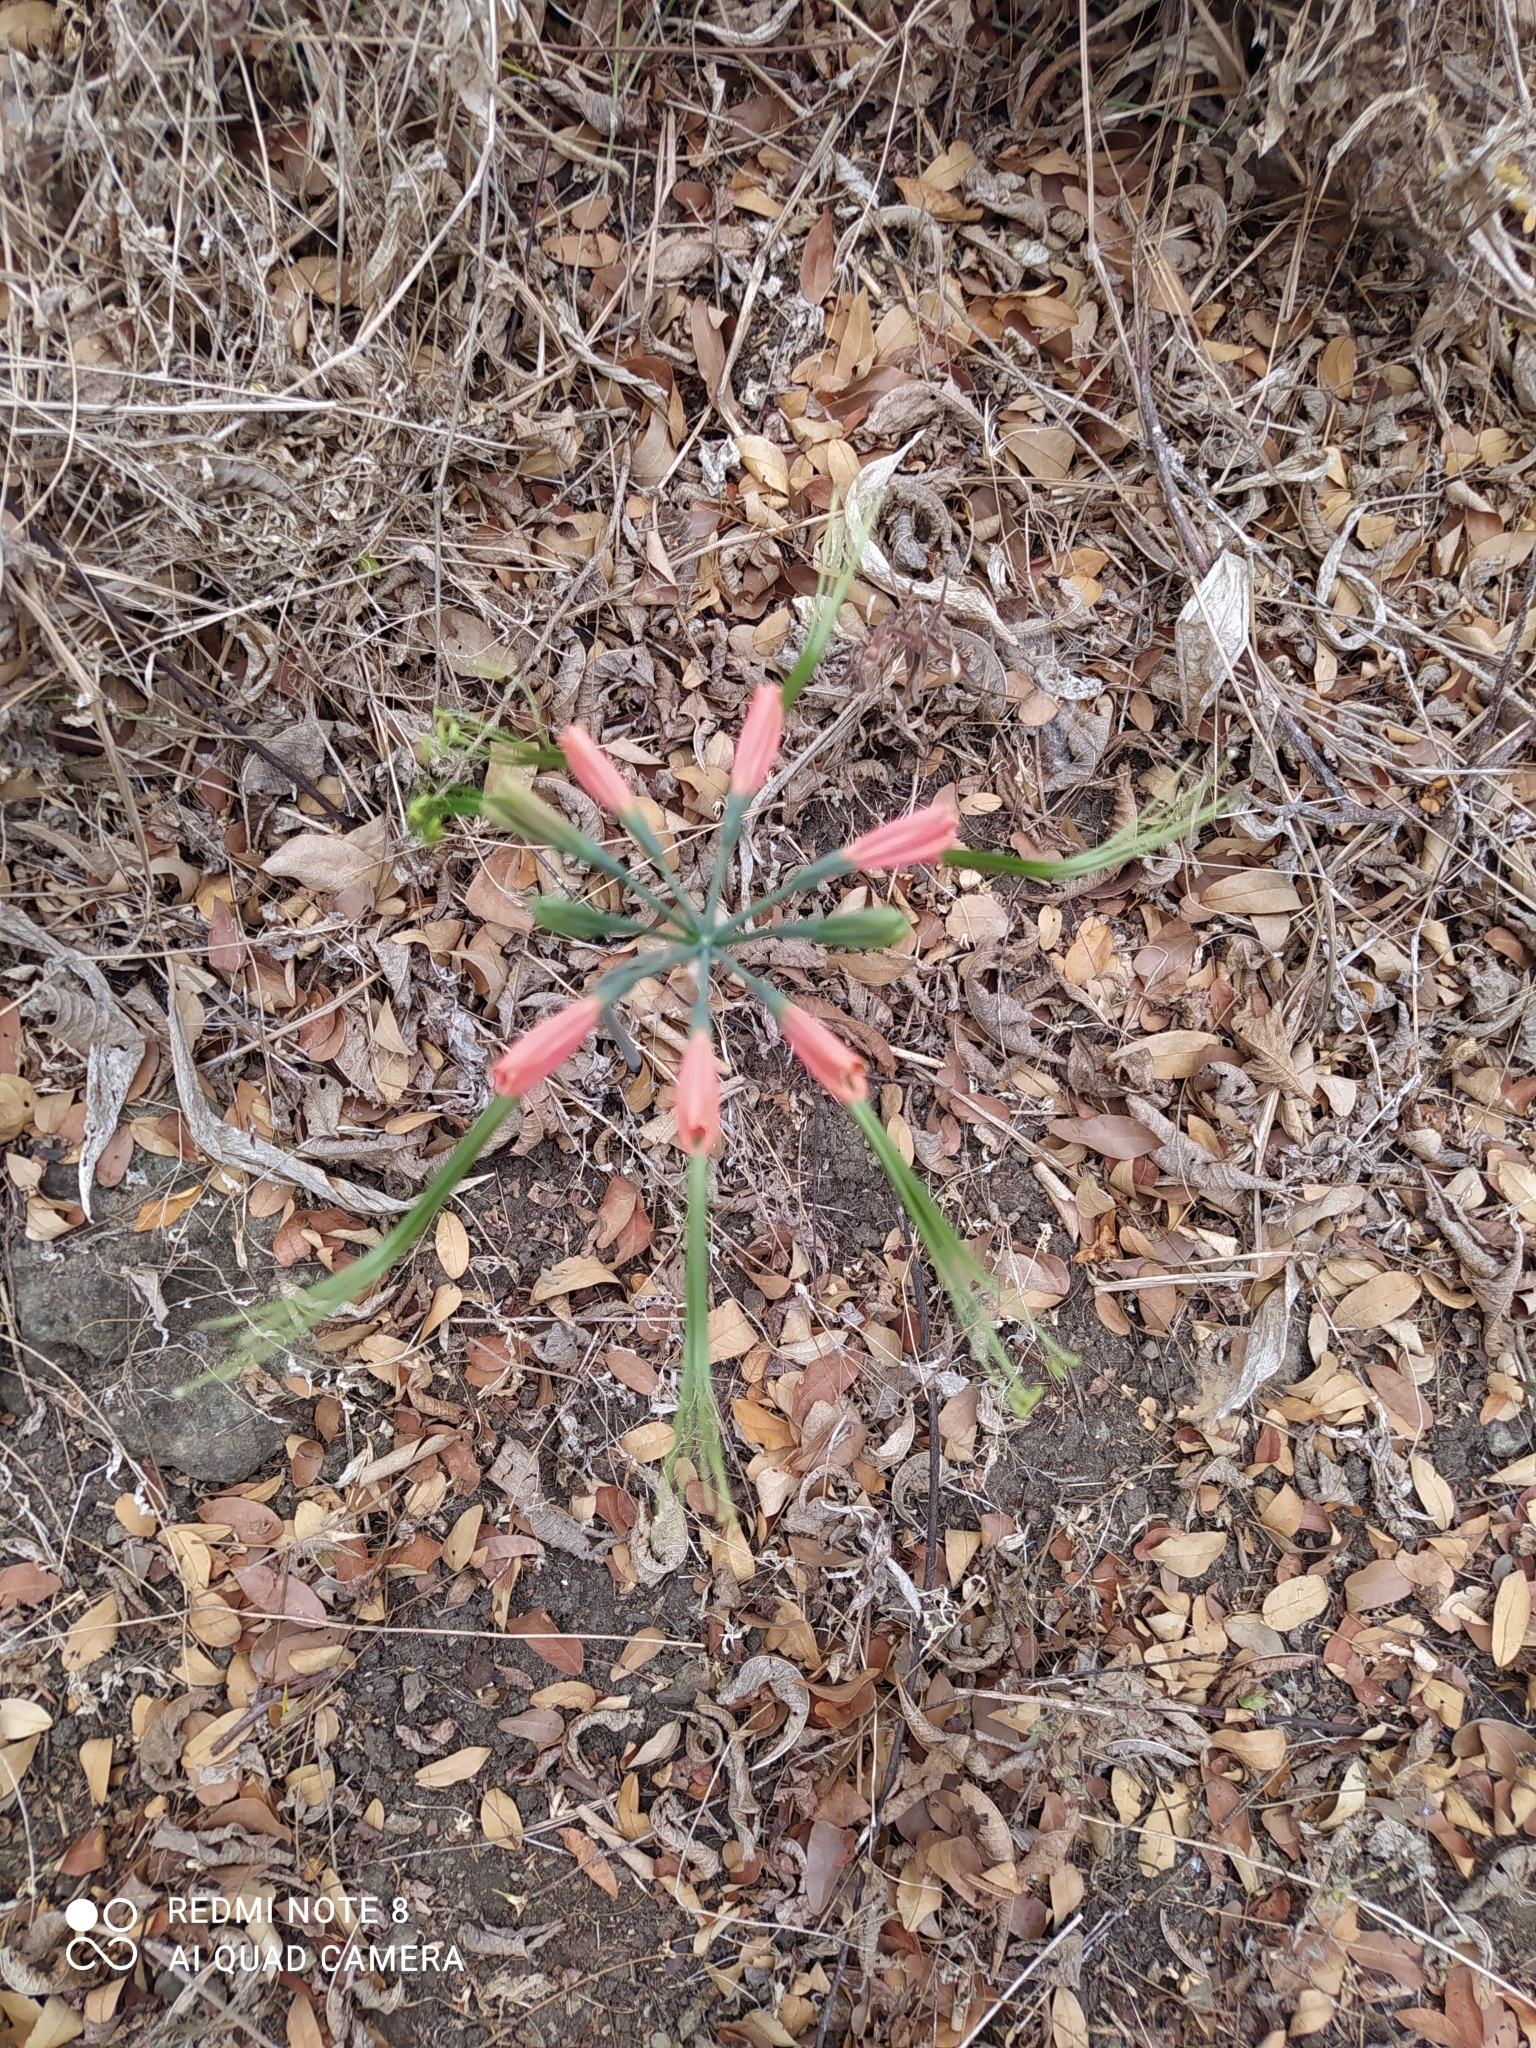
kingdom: Plantae
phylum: Tracheophyta
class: Liliopsida
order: Asparagales
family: Amaryllidaceae
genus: Eucrosia
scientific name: Eucrosia eucrosioides
